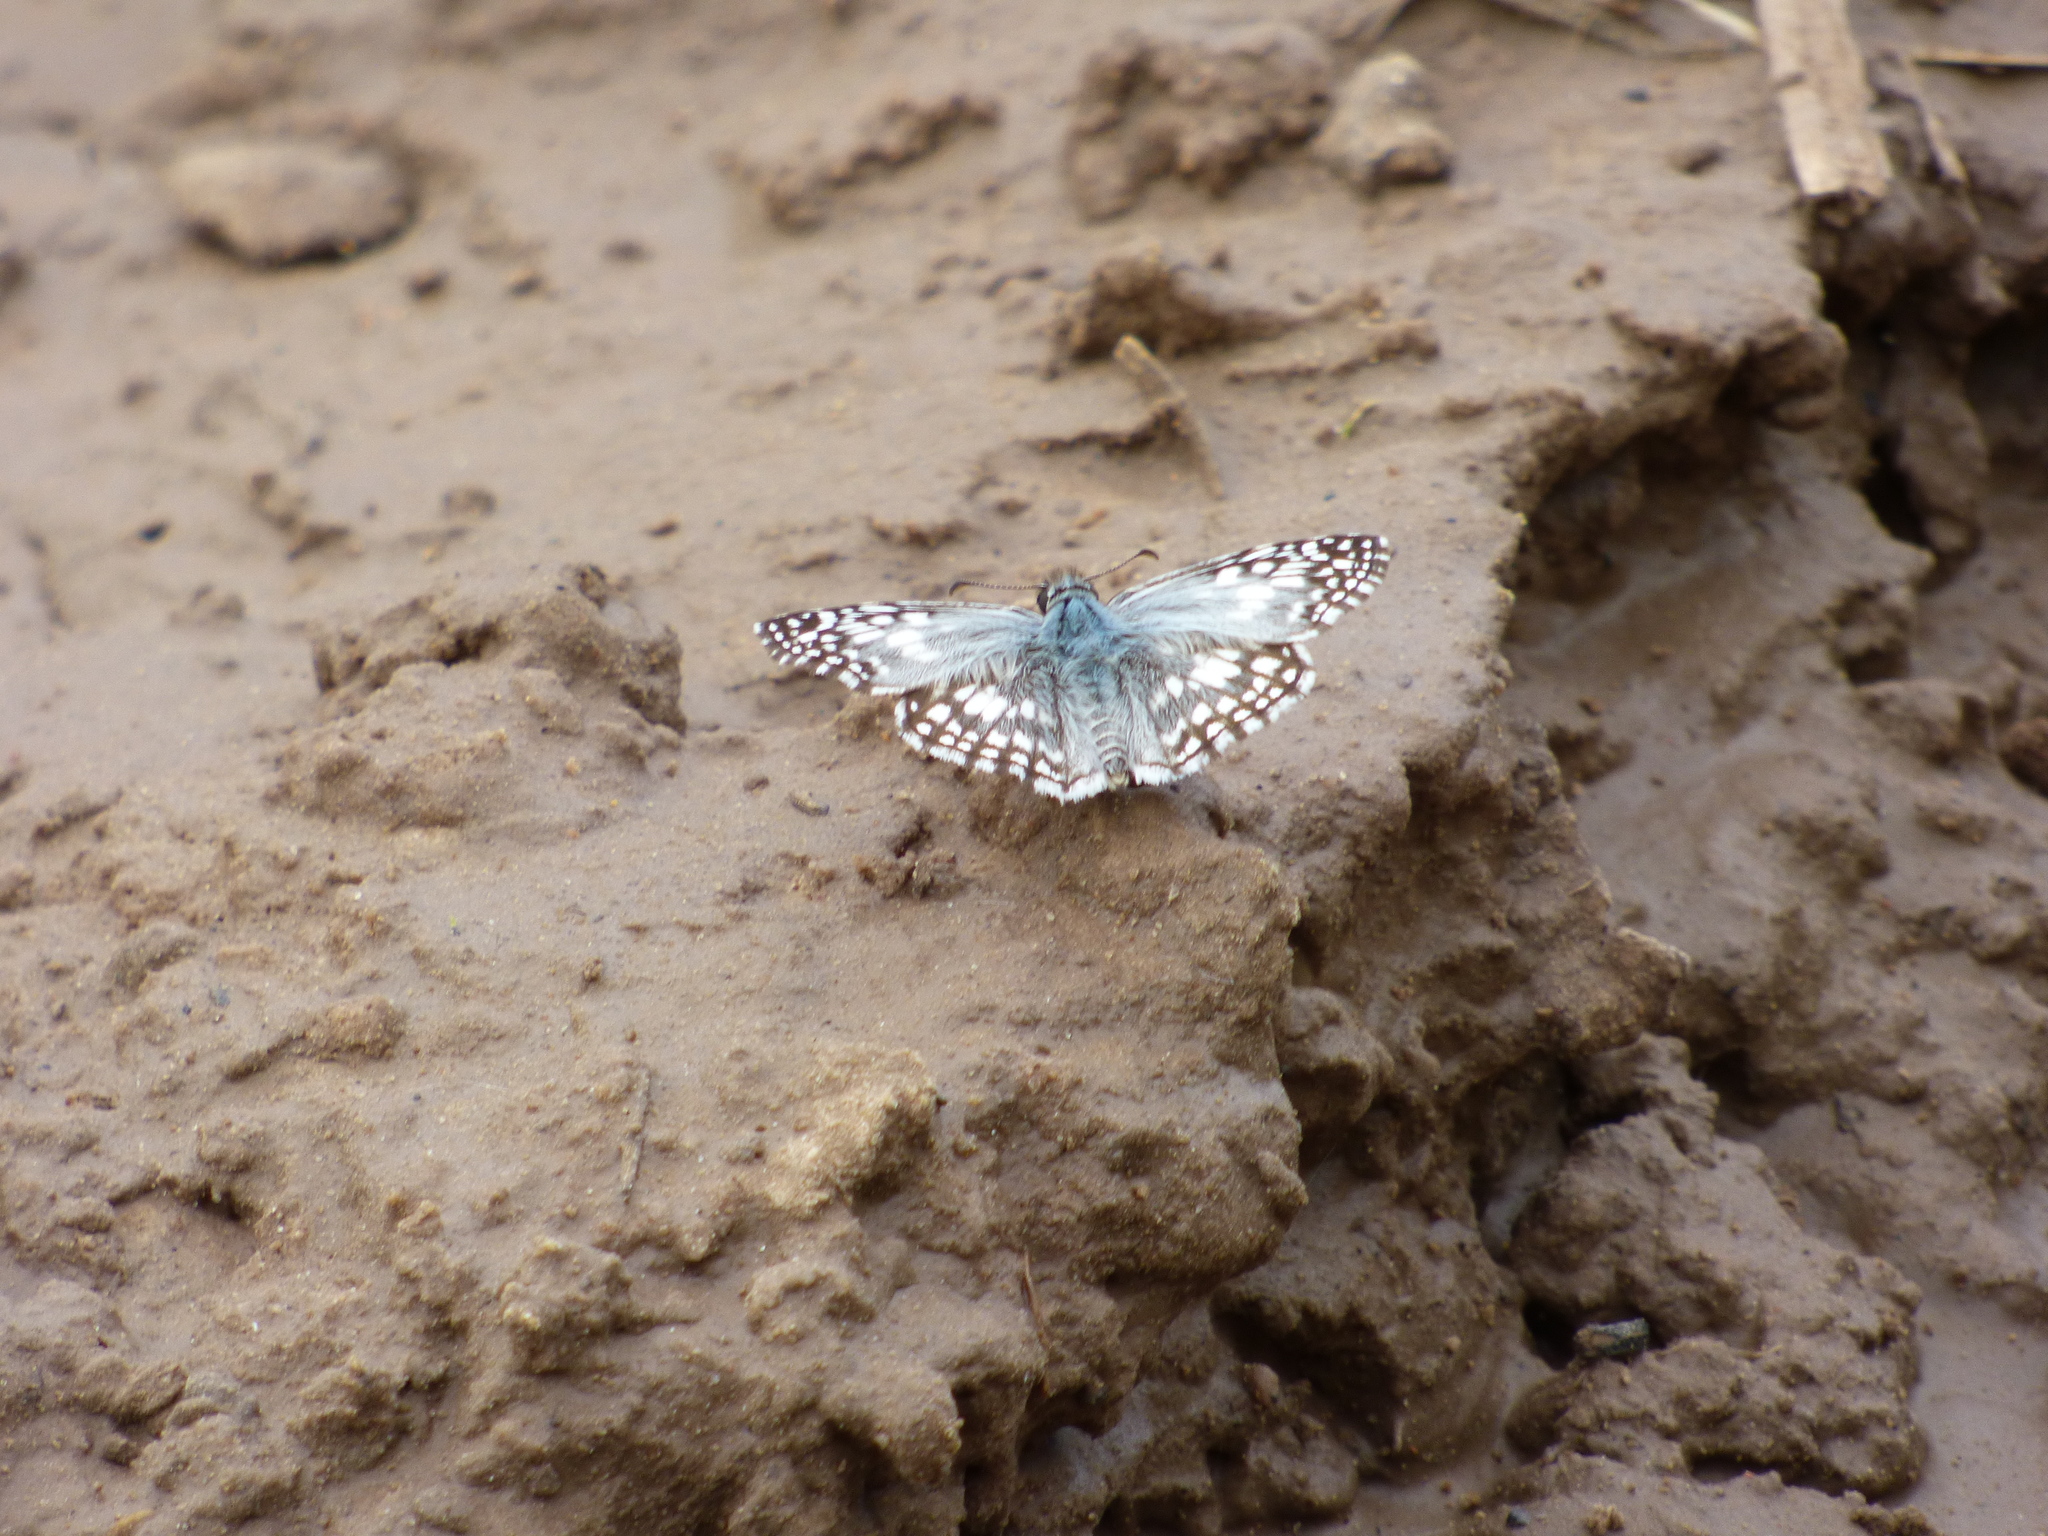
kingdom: Animalia
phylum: Arthropoda
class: Insecta
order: Lepidoptera
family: Hesperiidae
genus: Pyrgus
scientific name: Pyrgus oileus
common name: Tropical checkered-skipper
